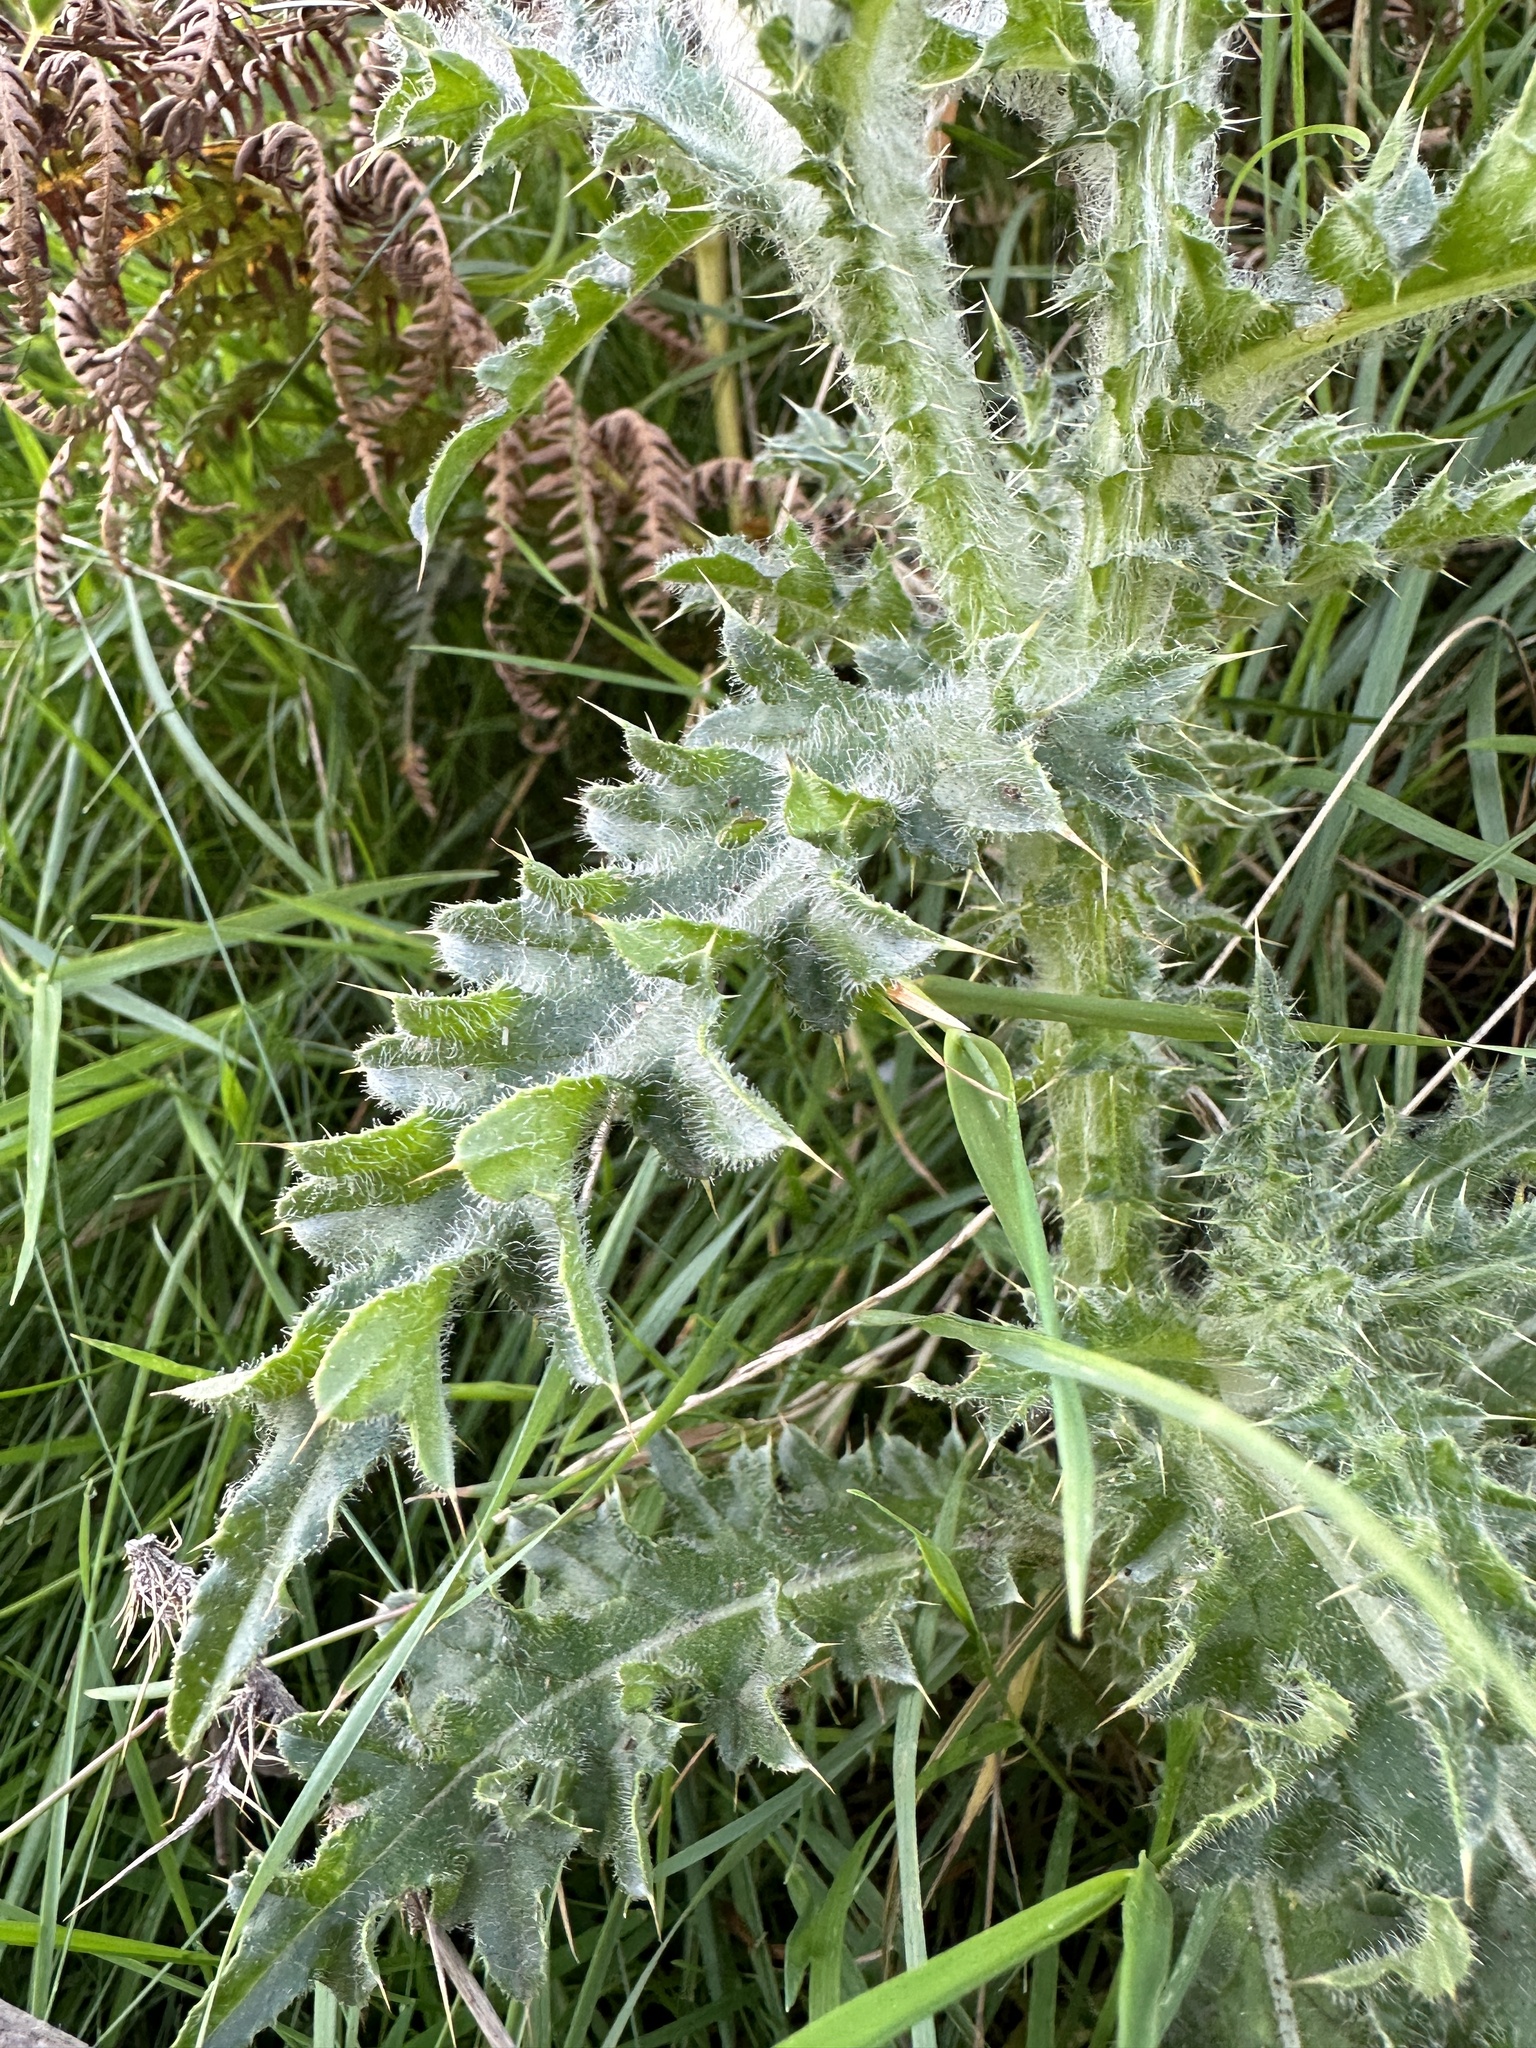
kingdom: Plantae
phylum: Tracheophyta
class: Magnoliopsida
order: Asterales
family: Asteraceae
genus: Carduus
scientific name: Carduus nutans
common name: Musk thistle
